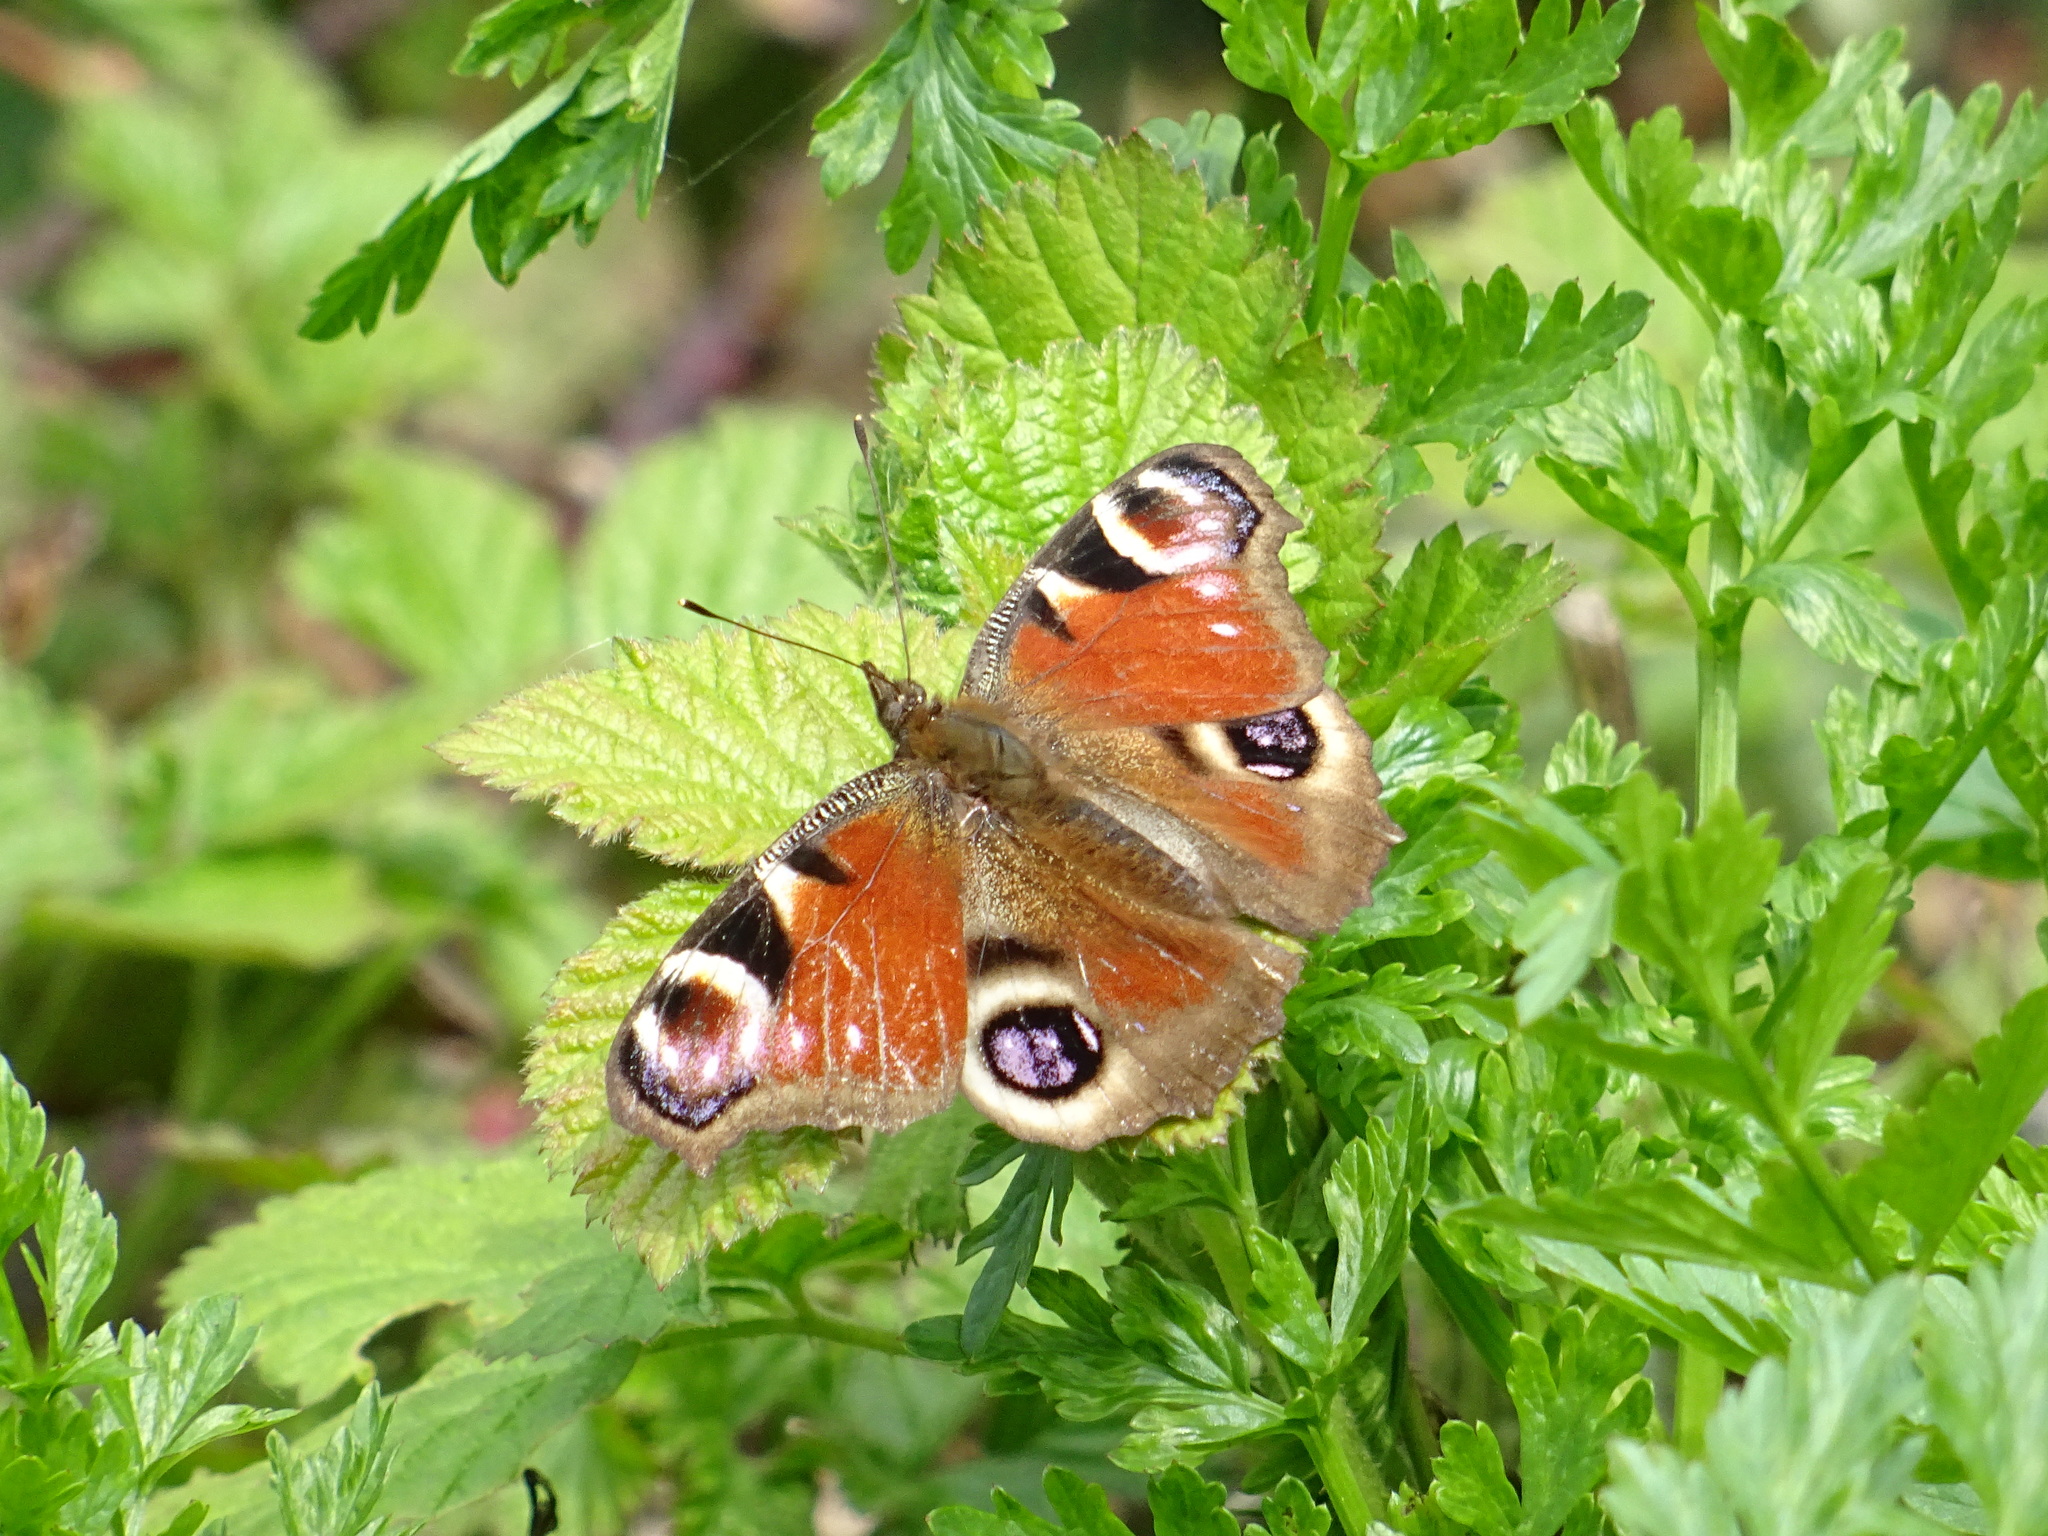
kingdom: Animalia
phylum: Arthropoda
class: Insecta
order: Lepidoptera
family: Nymphalidae
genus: Aglais
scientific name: Aglais io
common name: Peacock
